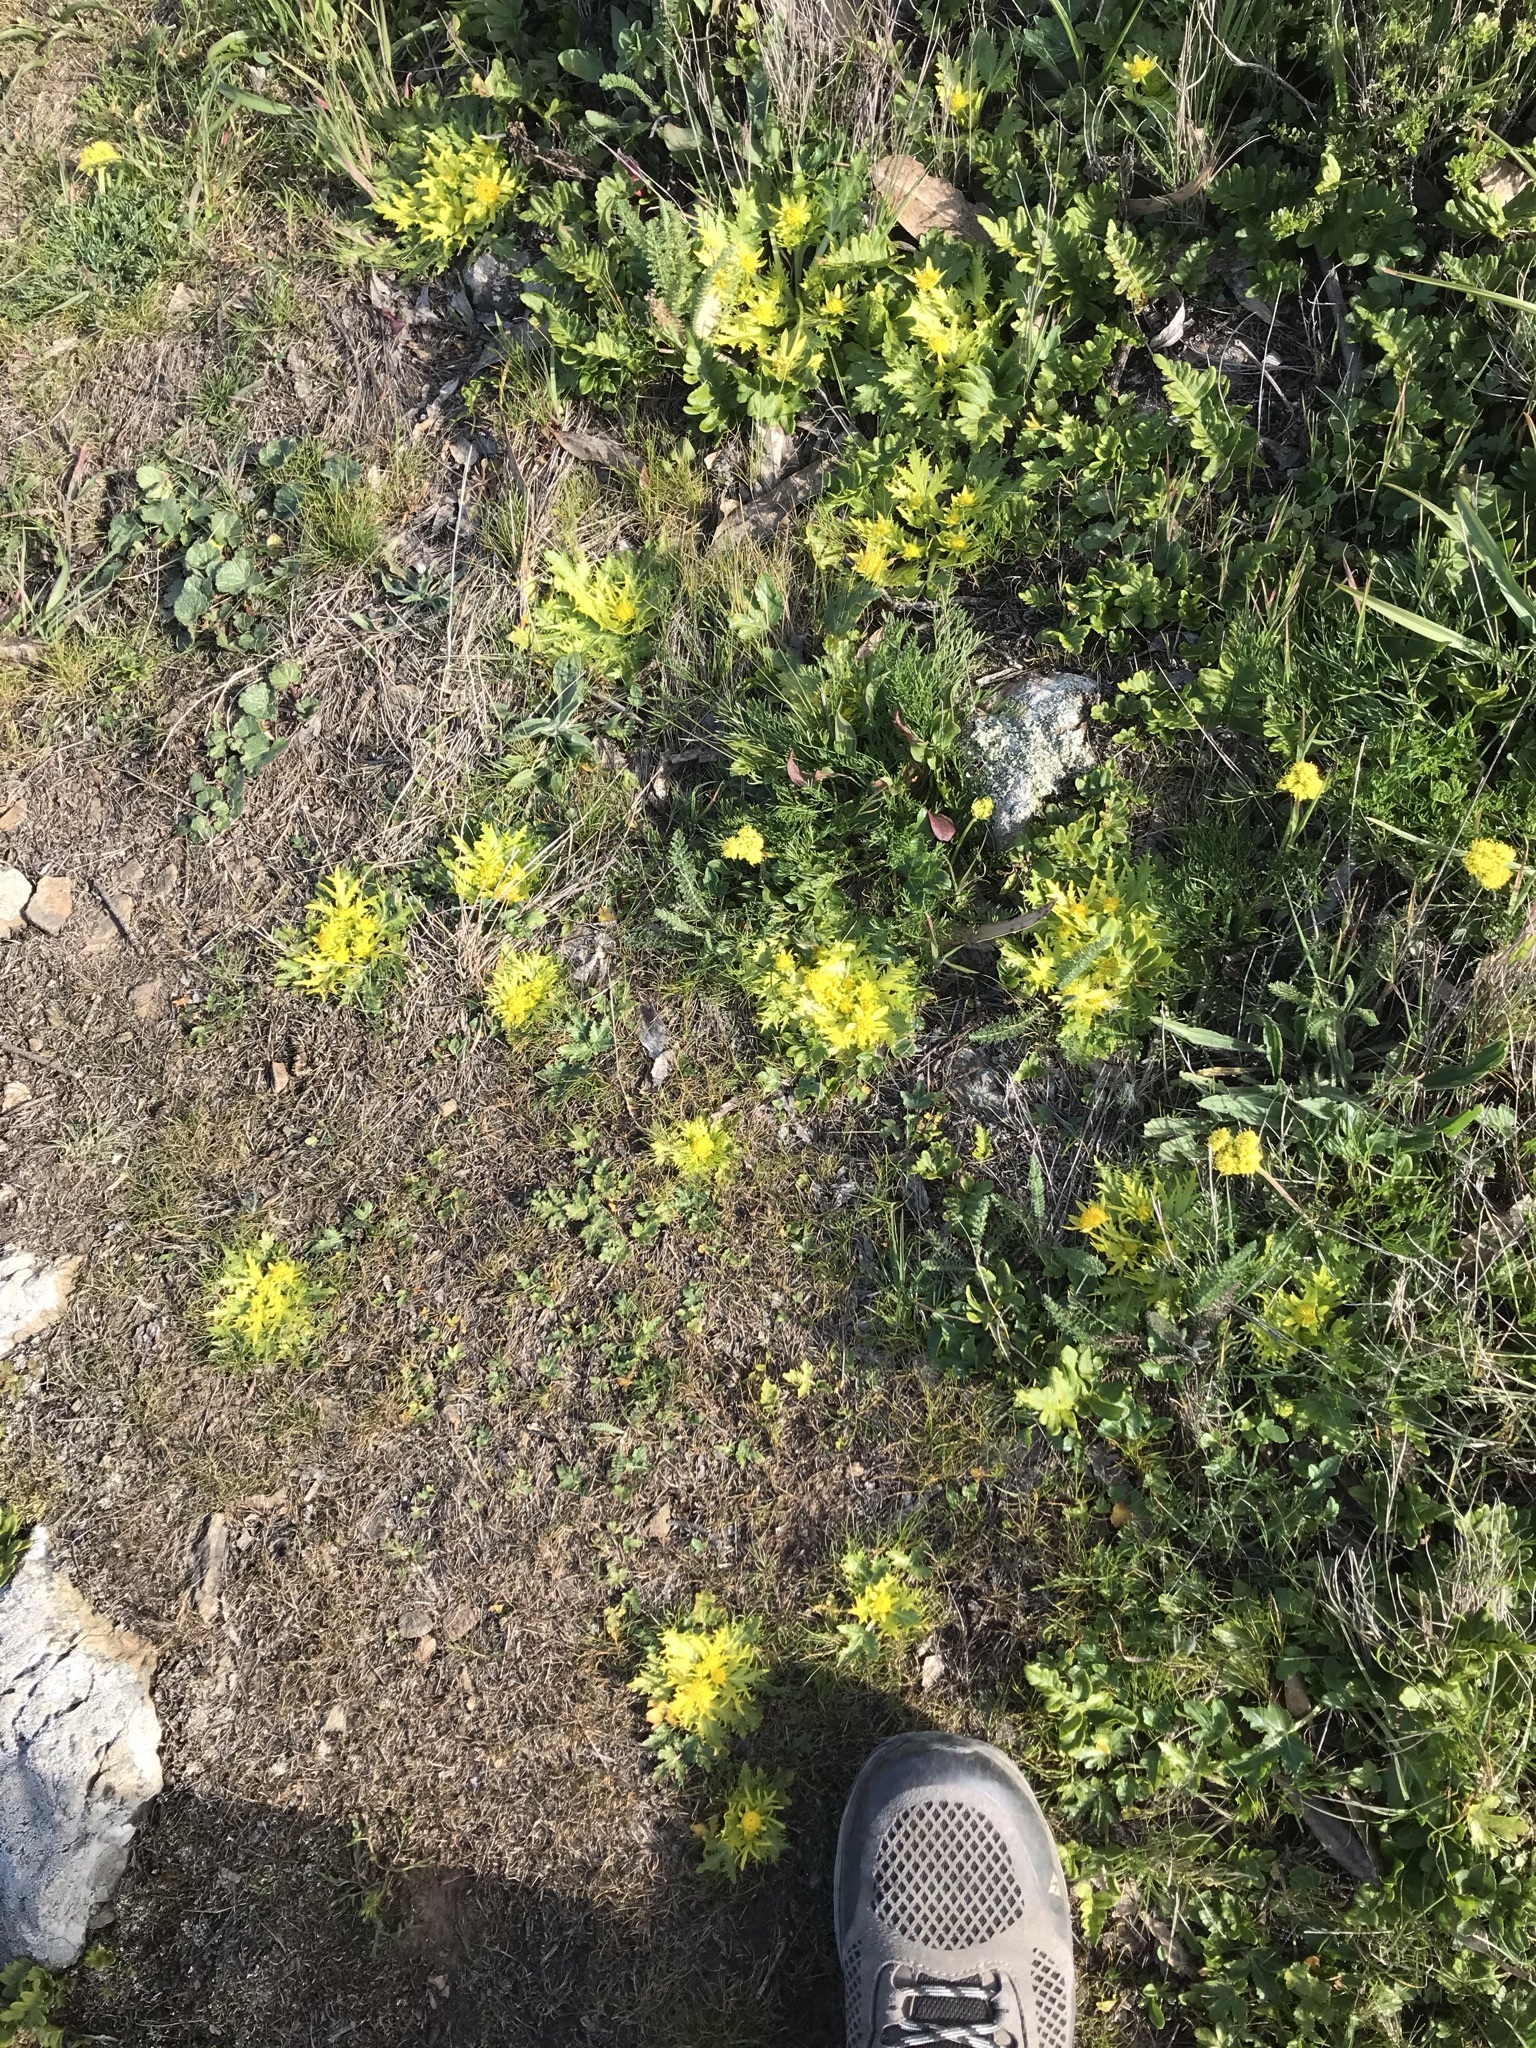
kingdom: Plantae
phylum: Tracheophyta
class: Magnoliopsida
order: Apiales
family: Apiaceae
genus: Sanicula
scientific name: Sanicula arctopoides
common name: Footsteps-of-spring
